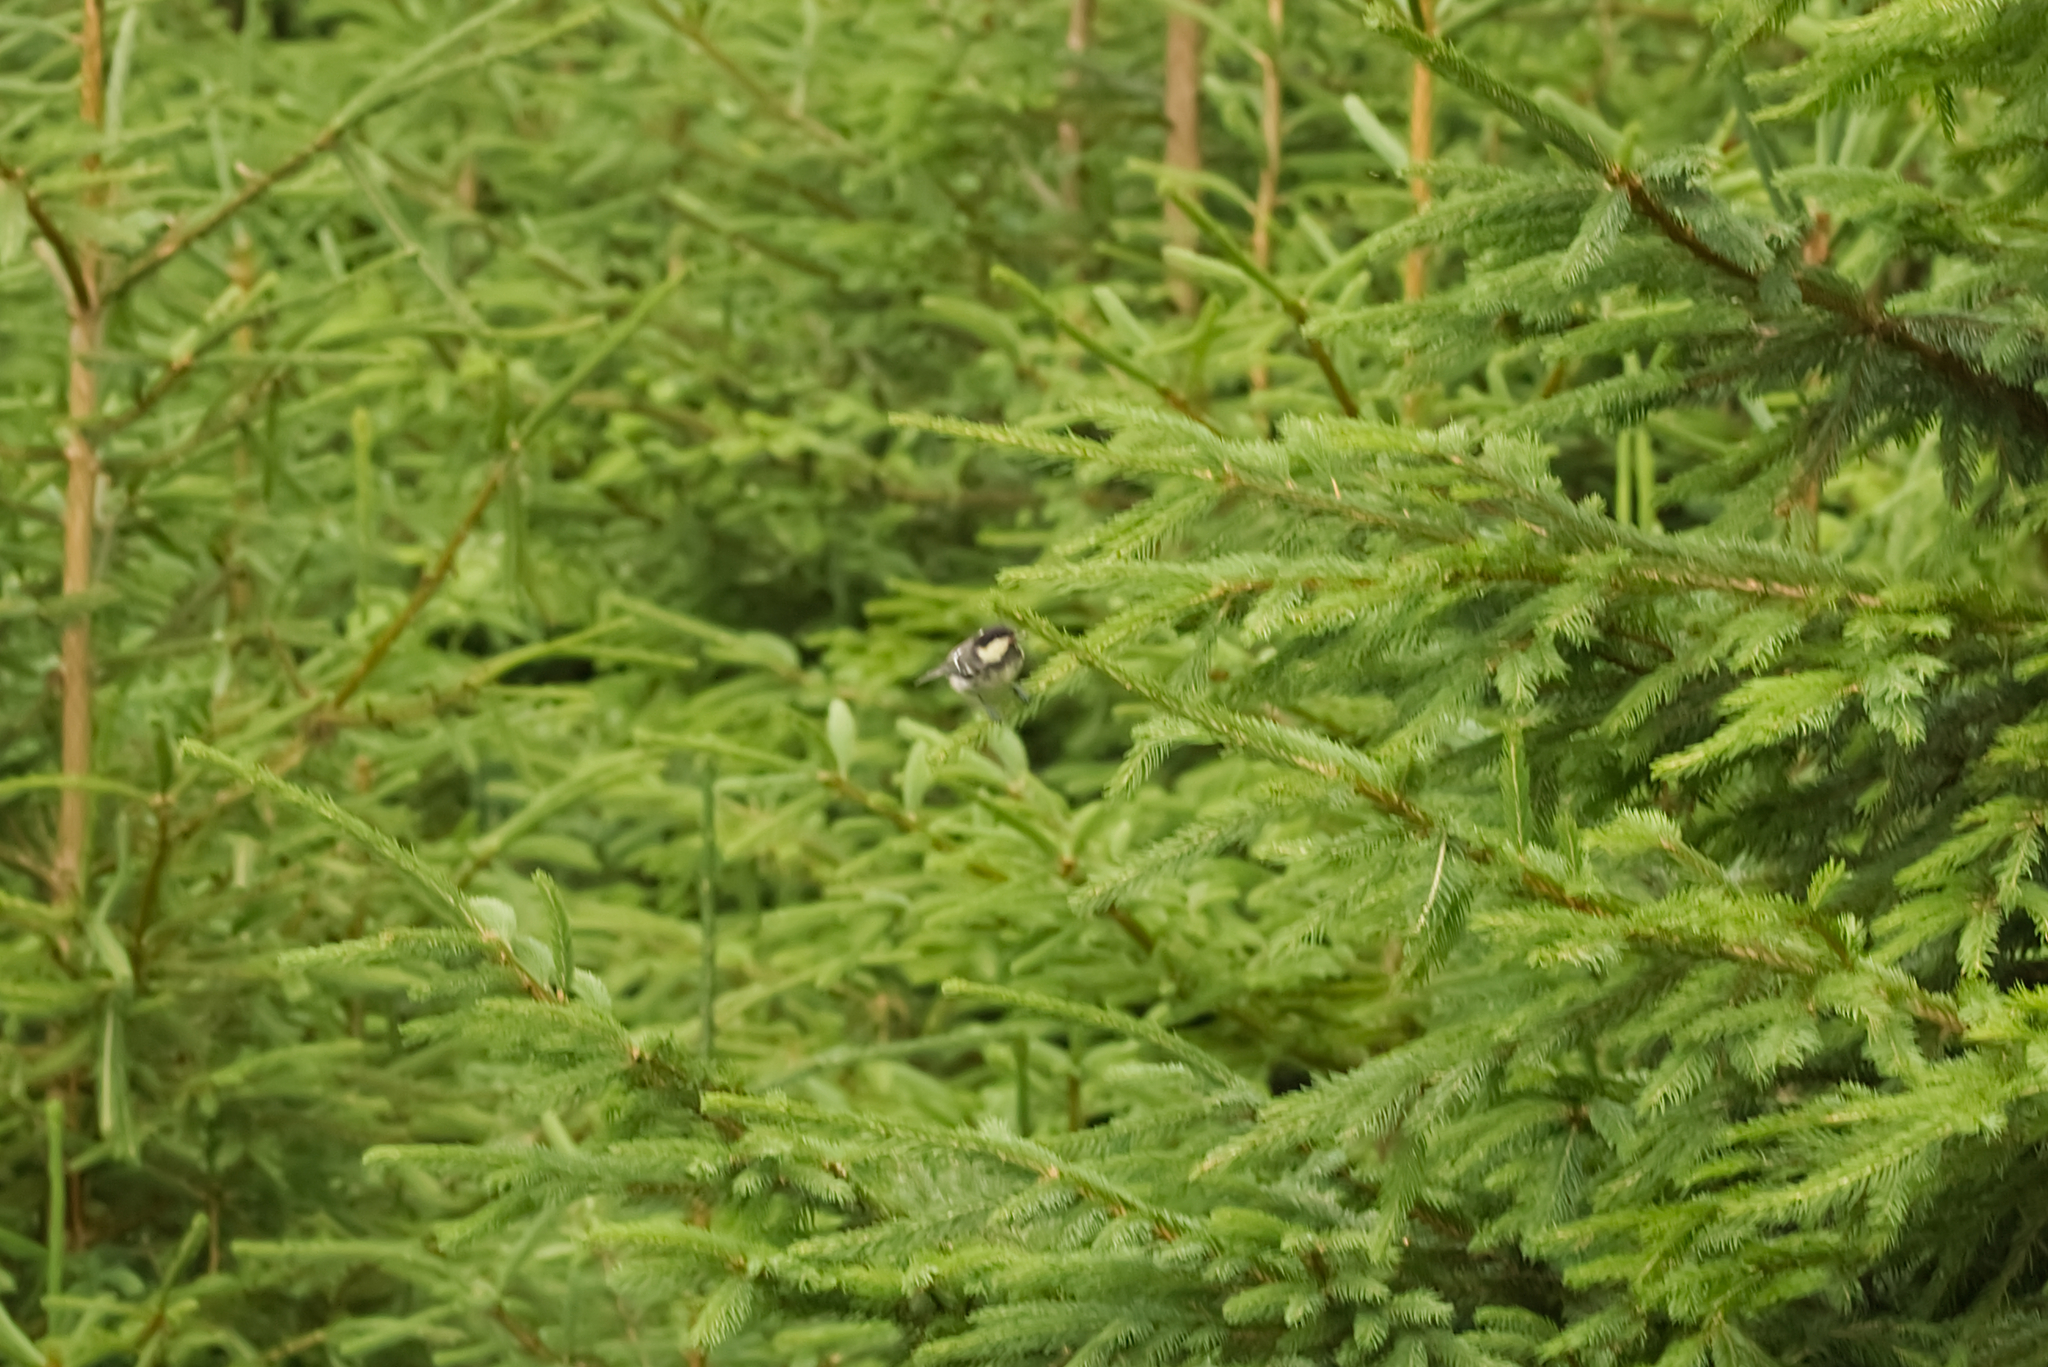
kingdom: Animalia
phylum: Chordata
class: Aves
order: Passeriformes
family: Paridae
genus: Periparus
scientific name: Periparus ater
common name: Coal tit
